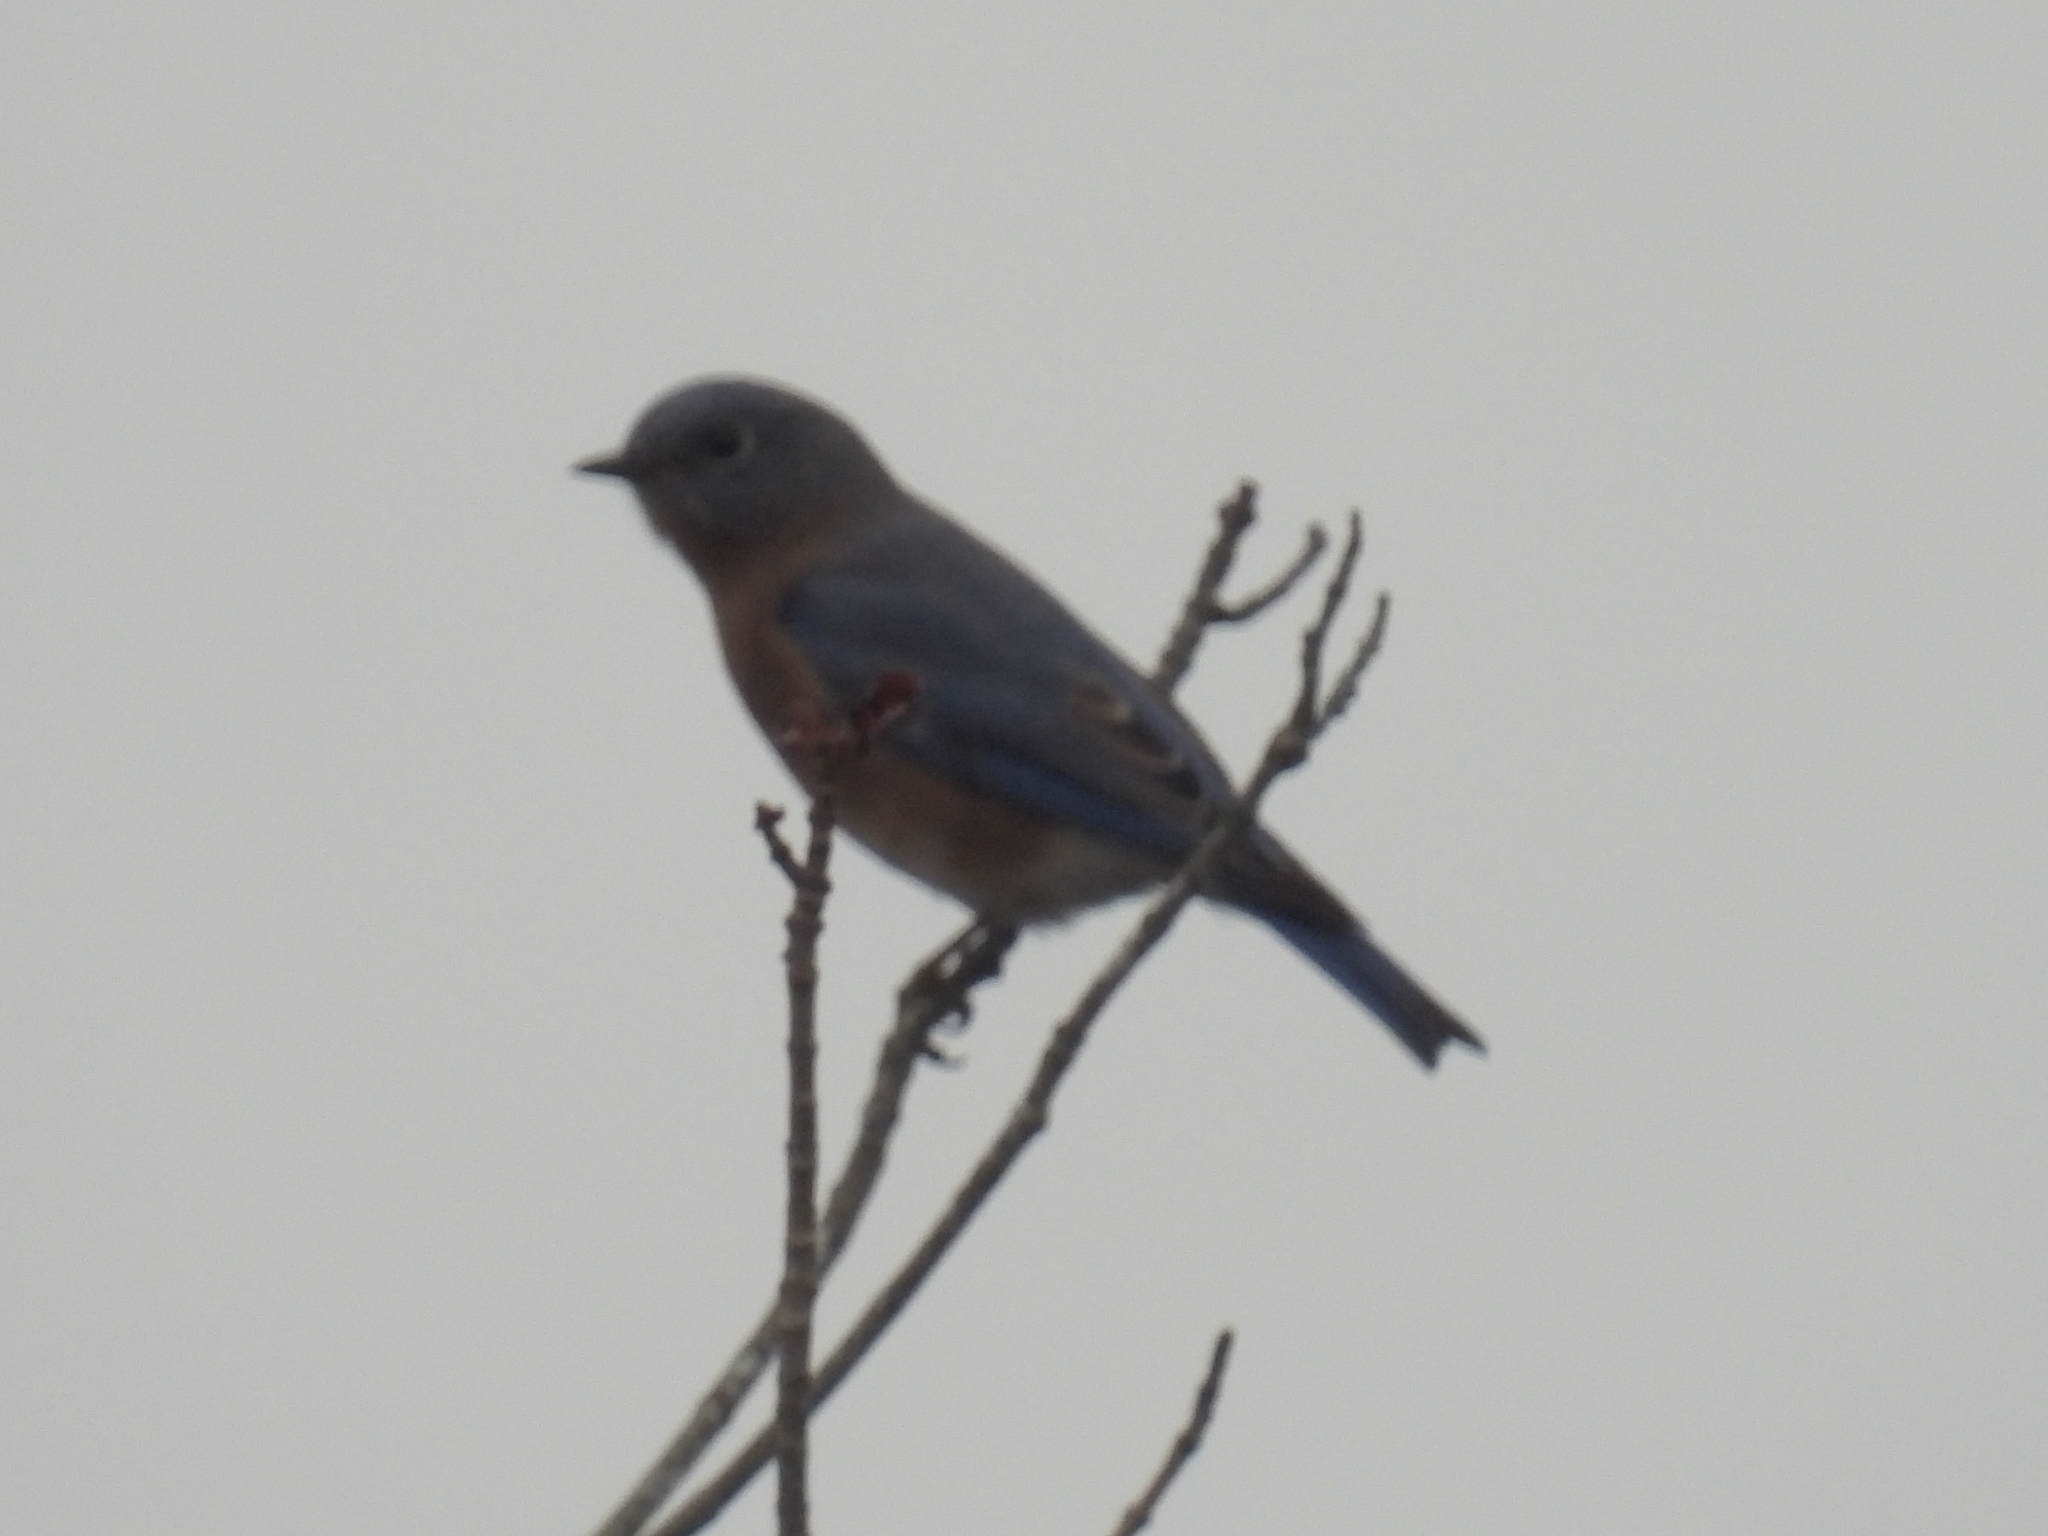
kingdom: Animalia
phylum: Chordata
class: Aves
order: Passeriformes
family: Turdidae
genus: Sialia
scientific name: Sialia sialis
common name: Eastern bluebird
